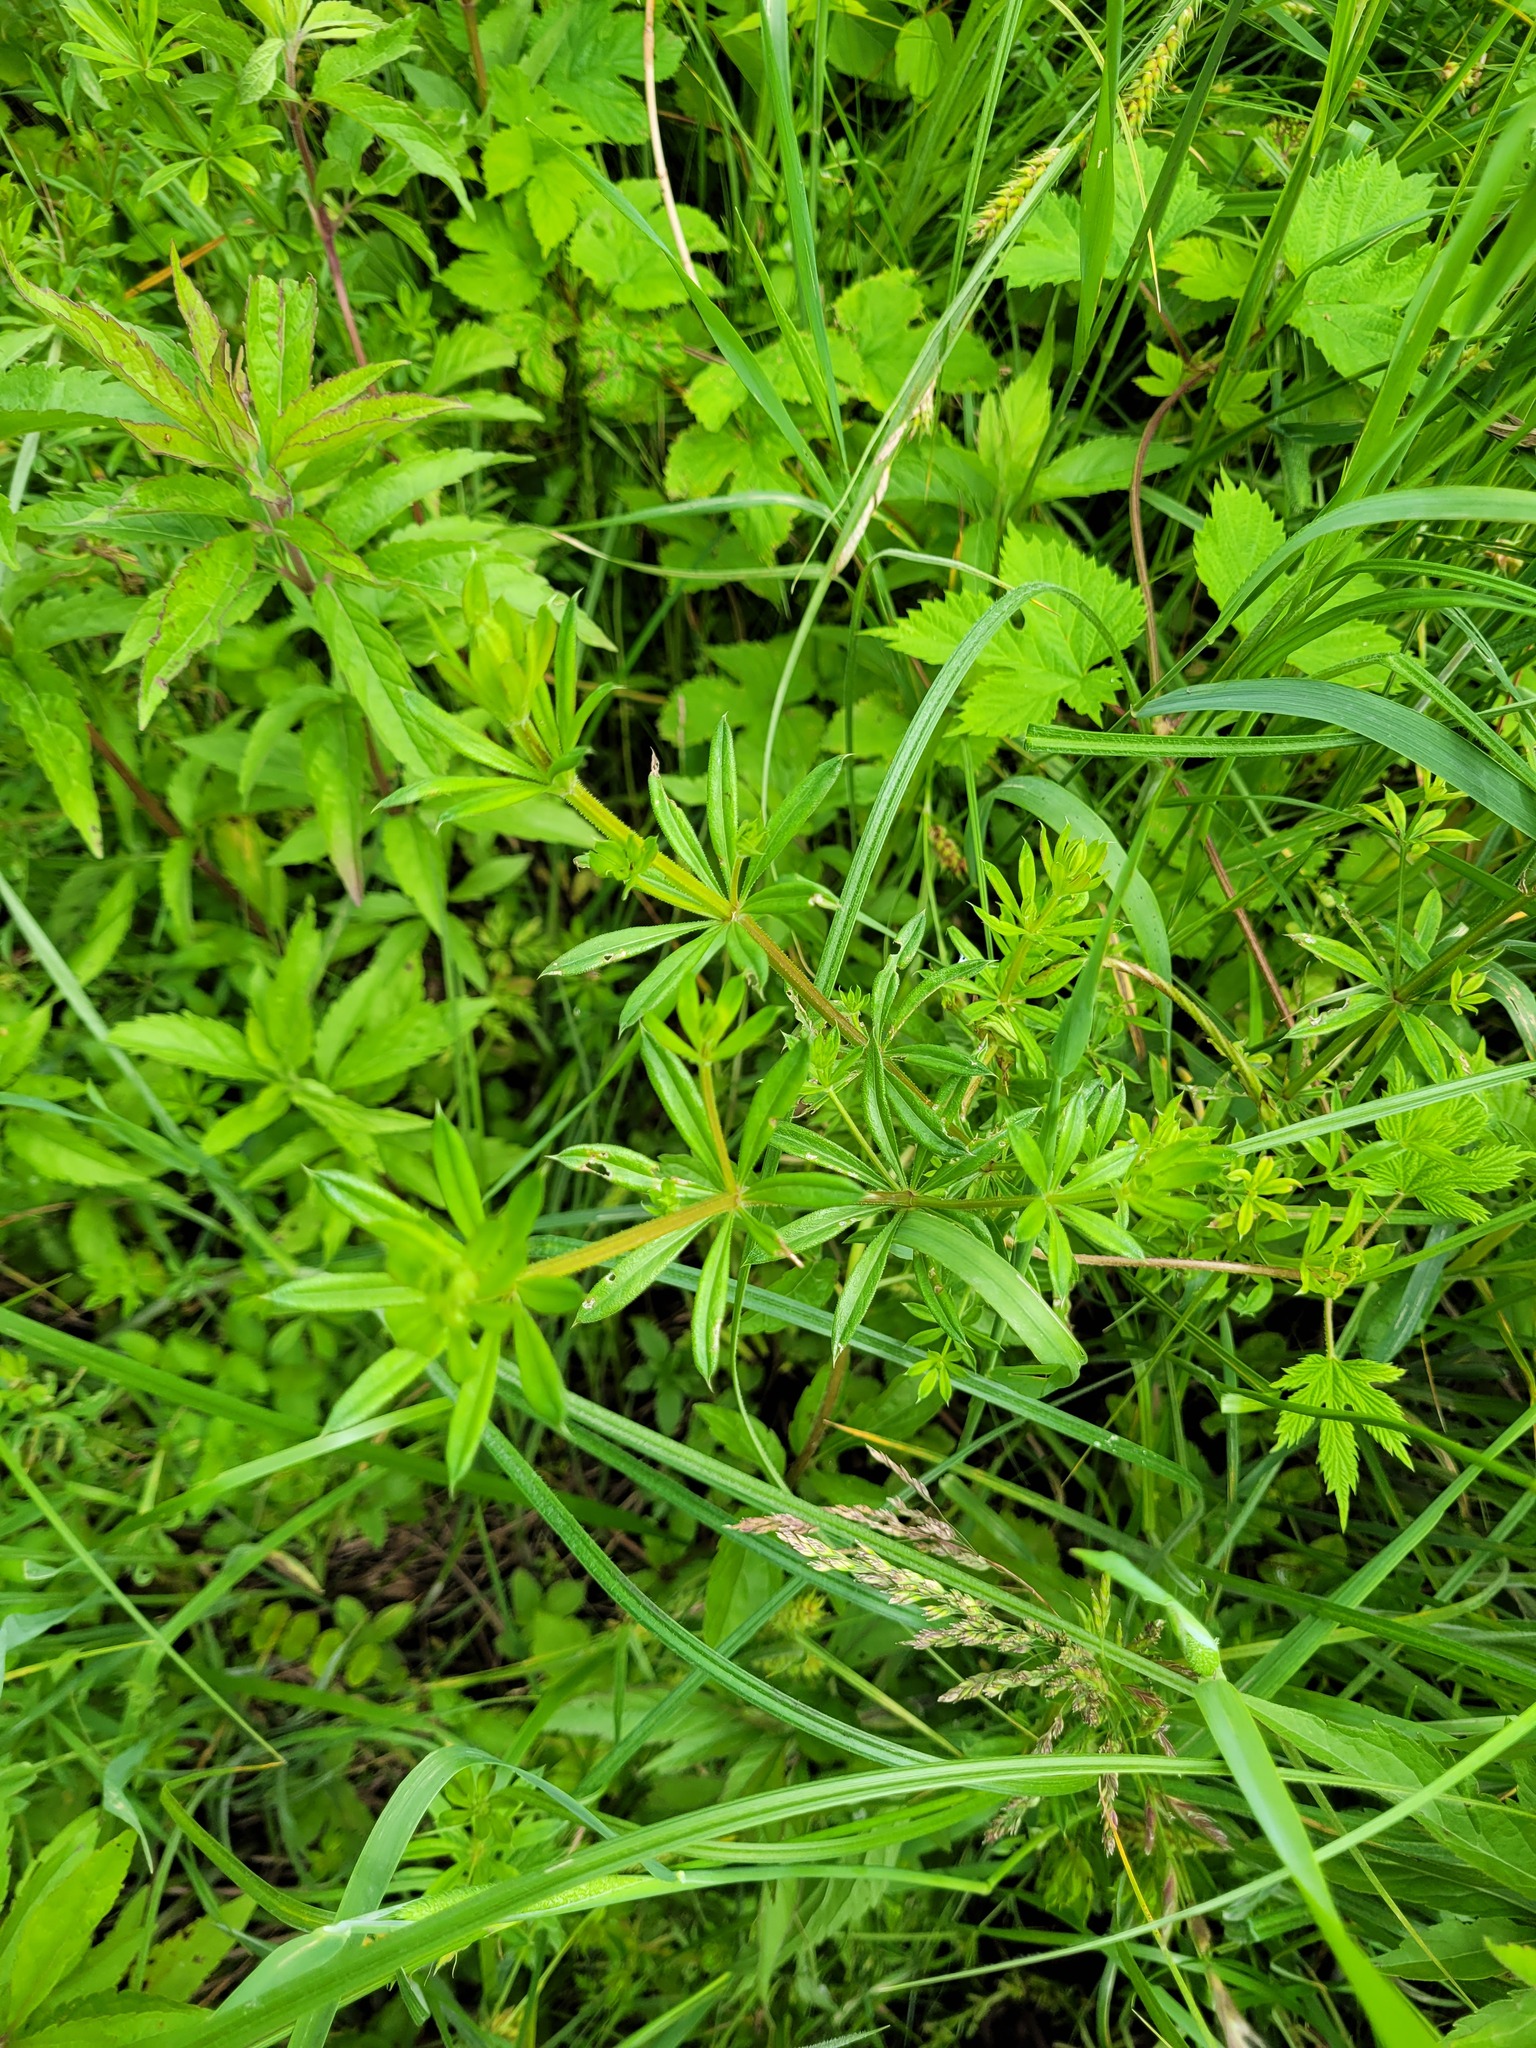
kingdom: Plantae
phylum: Tracheophyta
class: Magnoliopsida
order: Gentianales
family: Rubiaceae
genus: Galium
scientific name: Galium rivale
